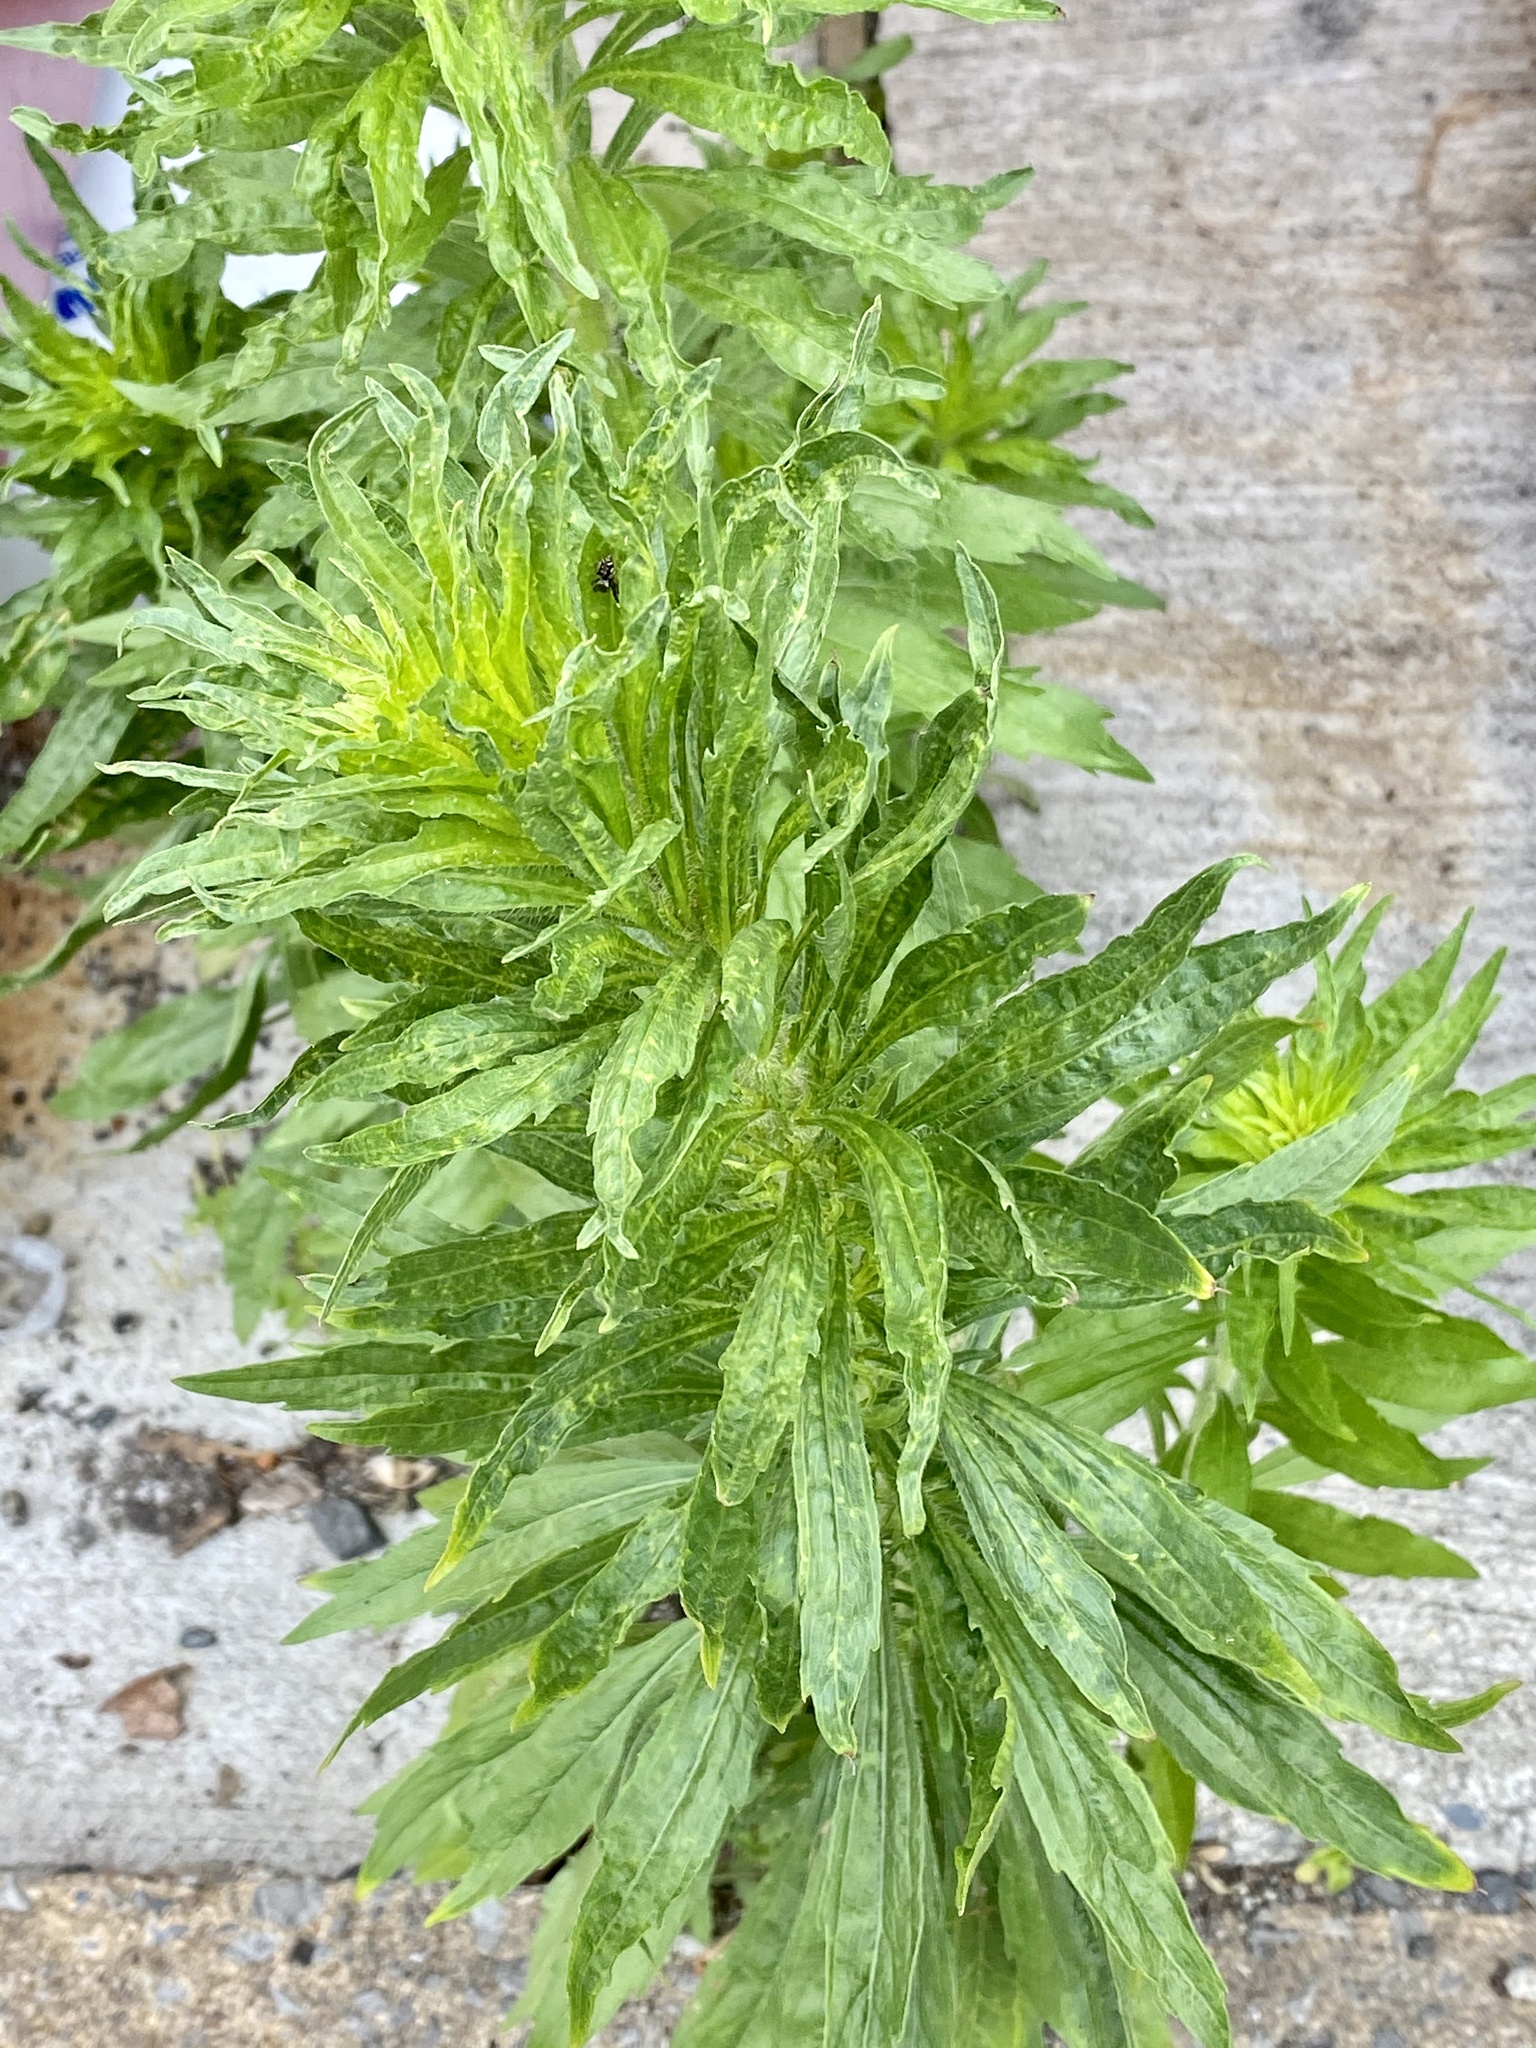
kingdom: Plantae
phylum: Tracheophyta
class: Magnoliopsida
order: Asterales
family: Asteraceae
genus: Erigeron
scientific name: Erigeron canadensis
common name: Canadian fleabane
